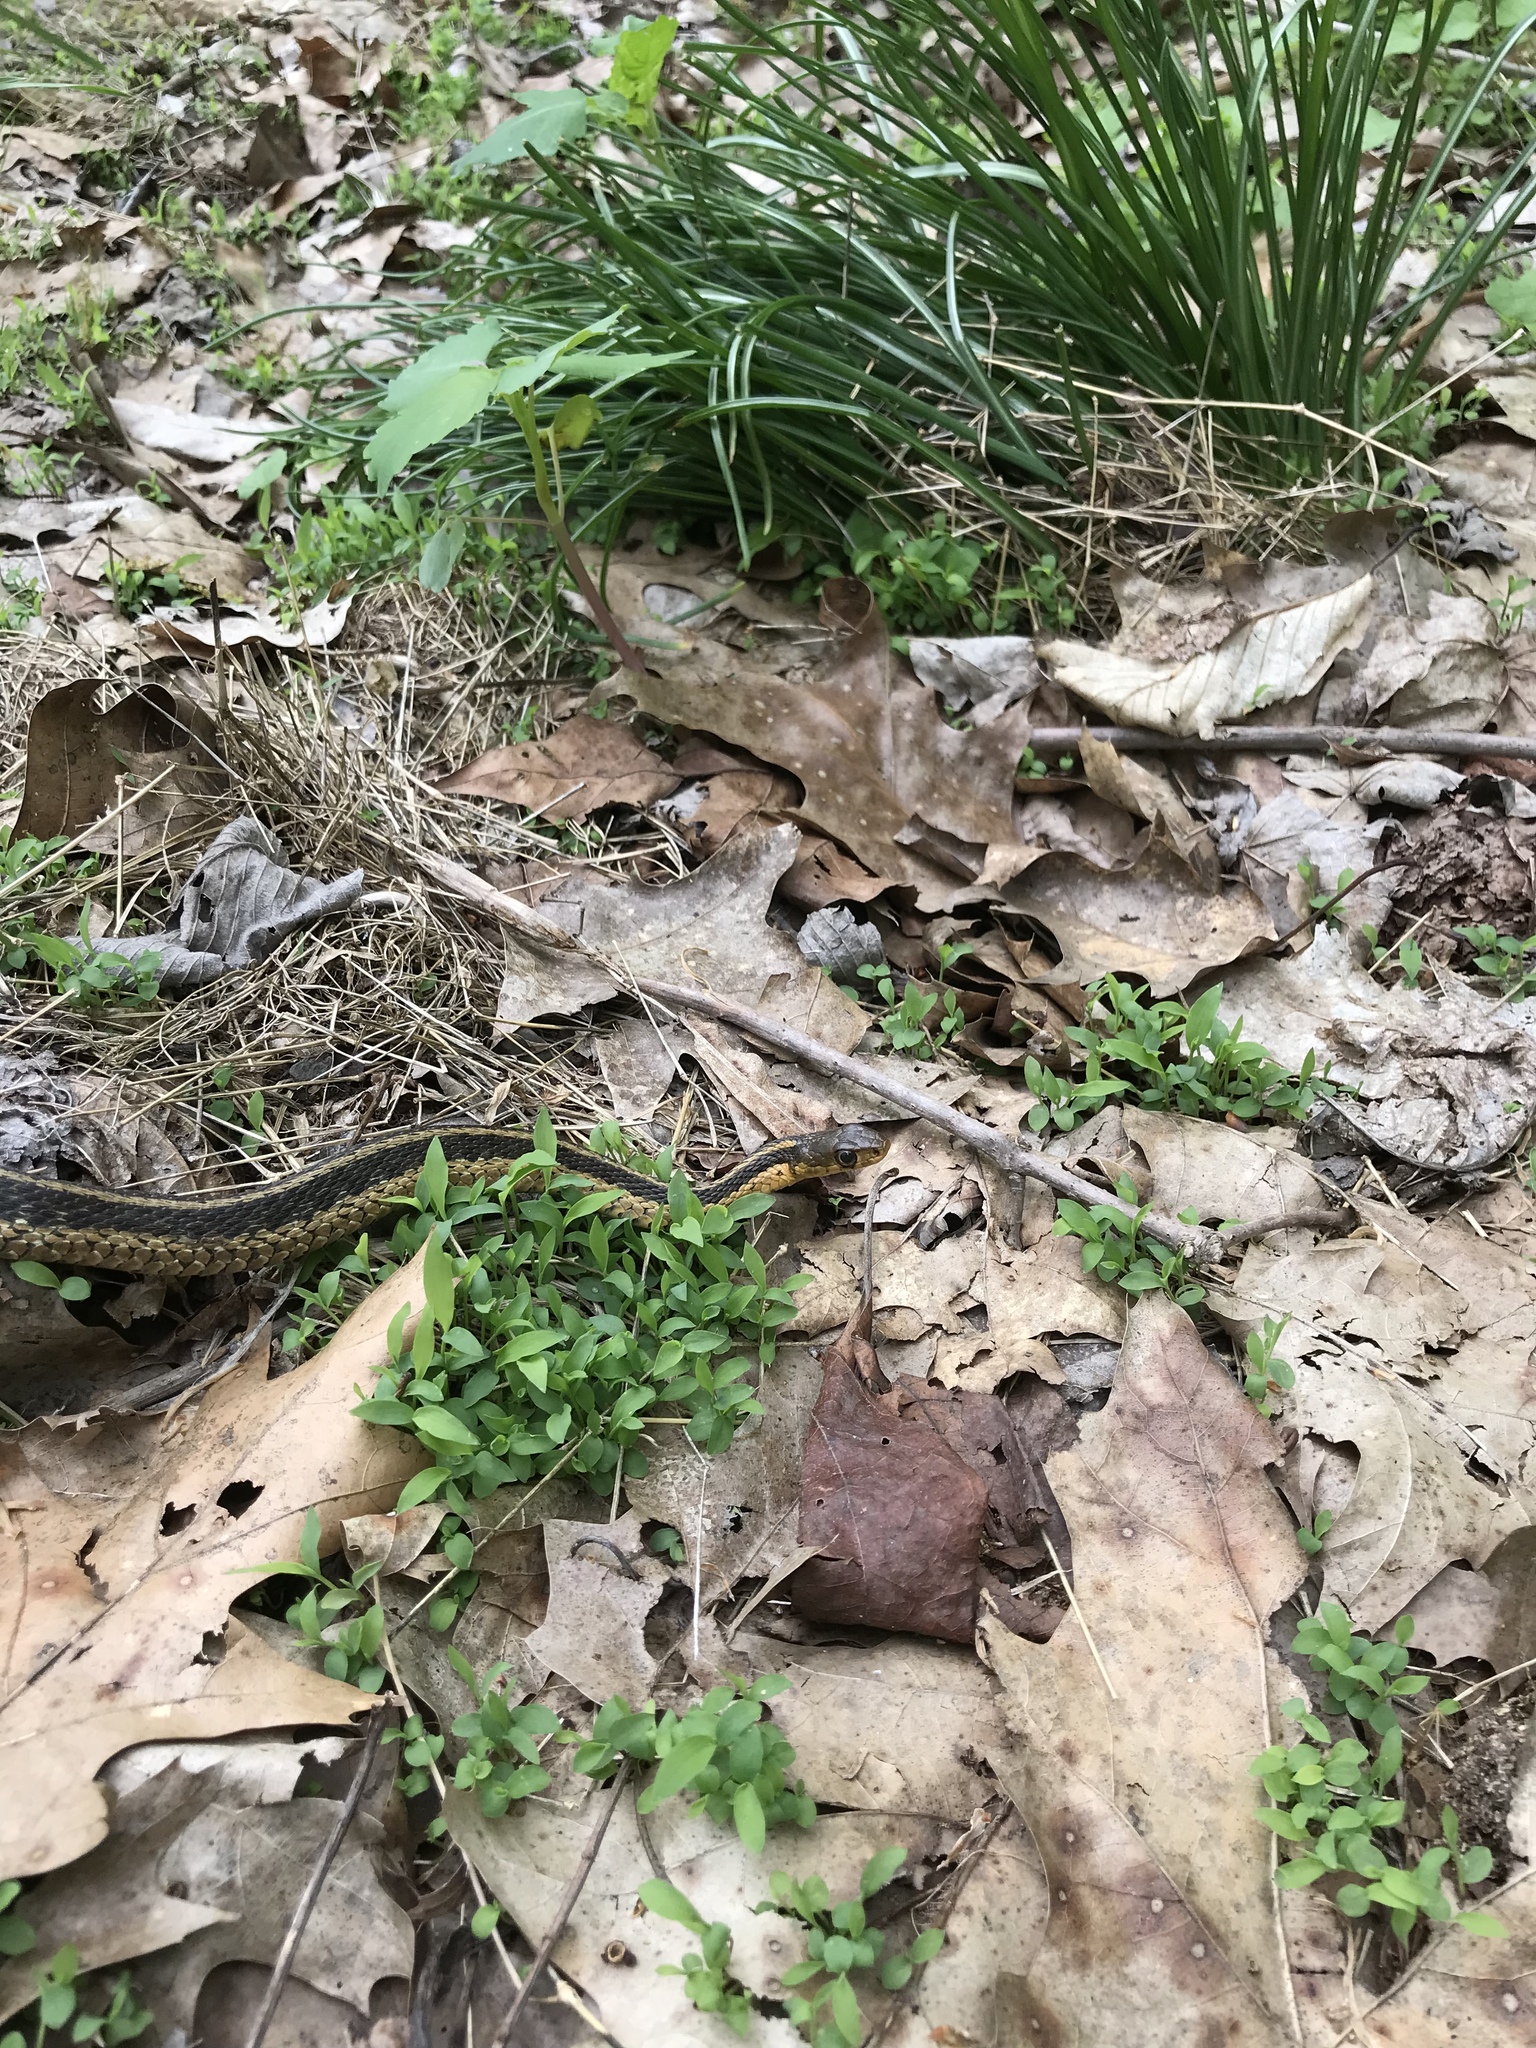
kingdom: Animalia
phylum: Chordata
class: Squamata
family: Colubridae
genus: Thamnophis
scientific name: Thamnophis sirtalis
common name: Common garter snake
